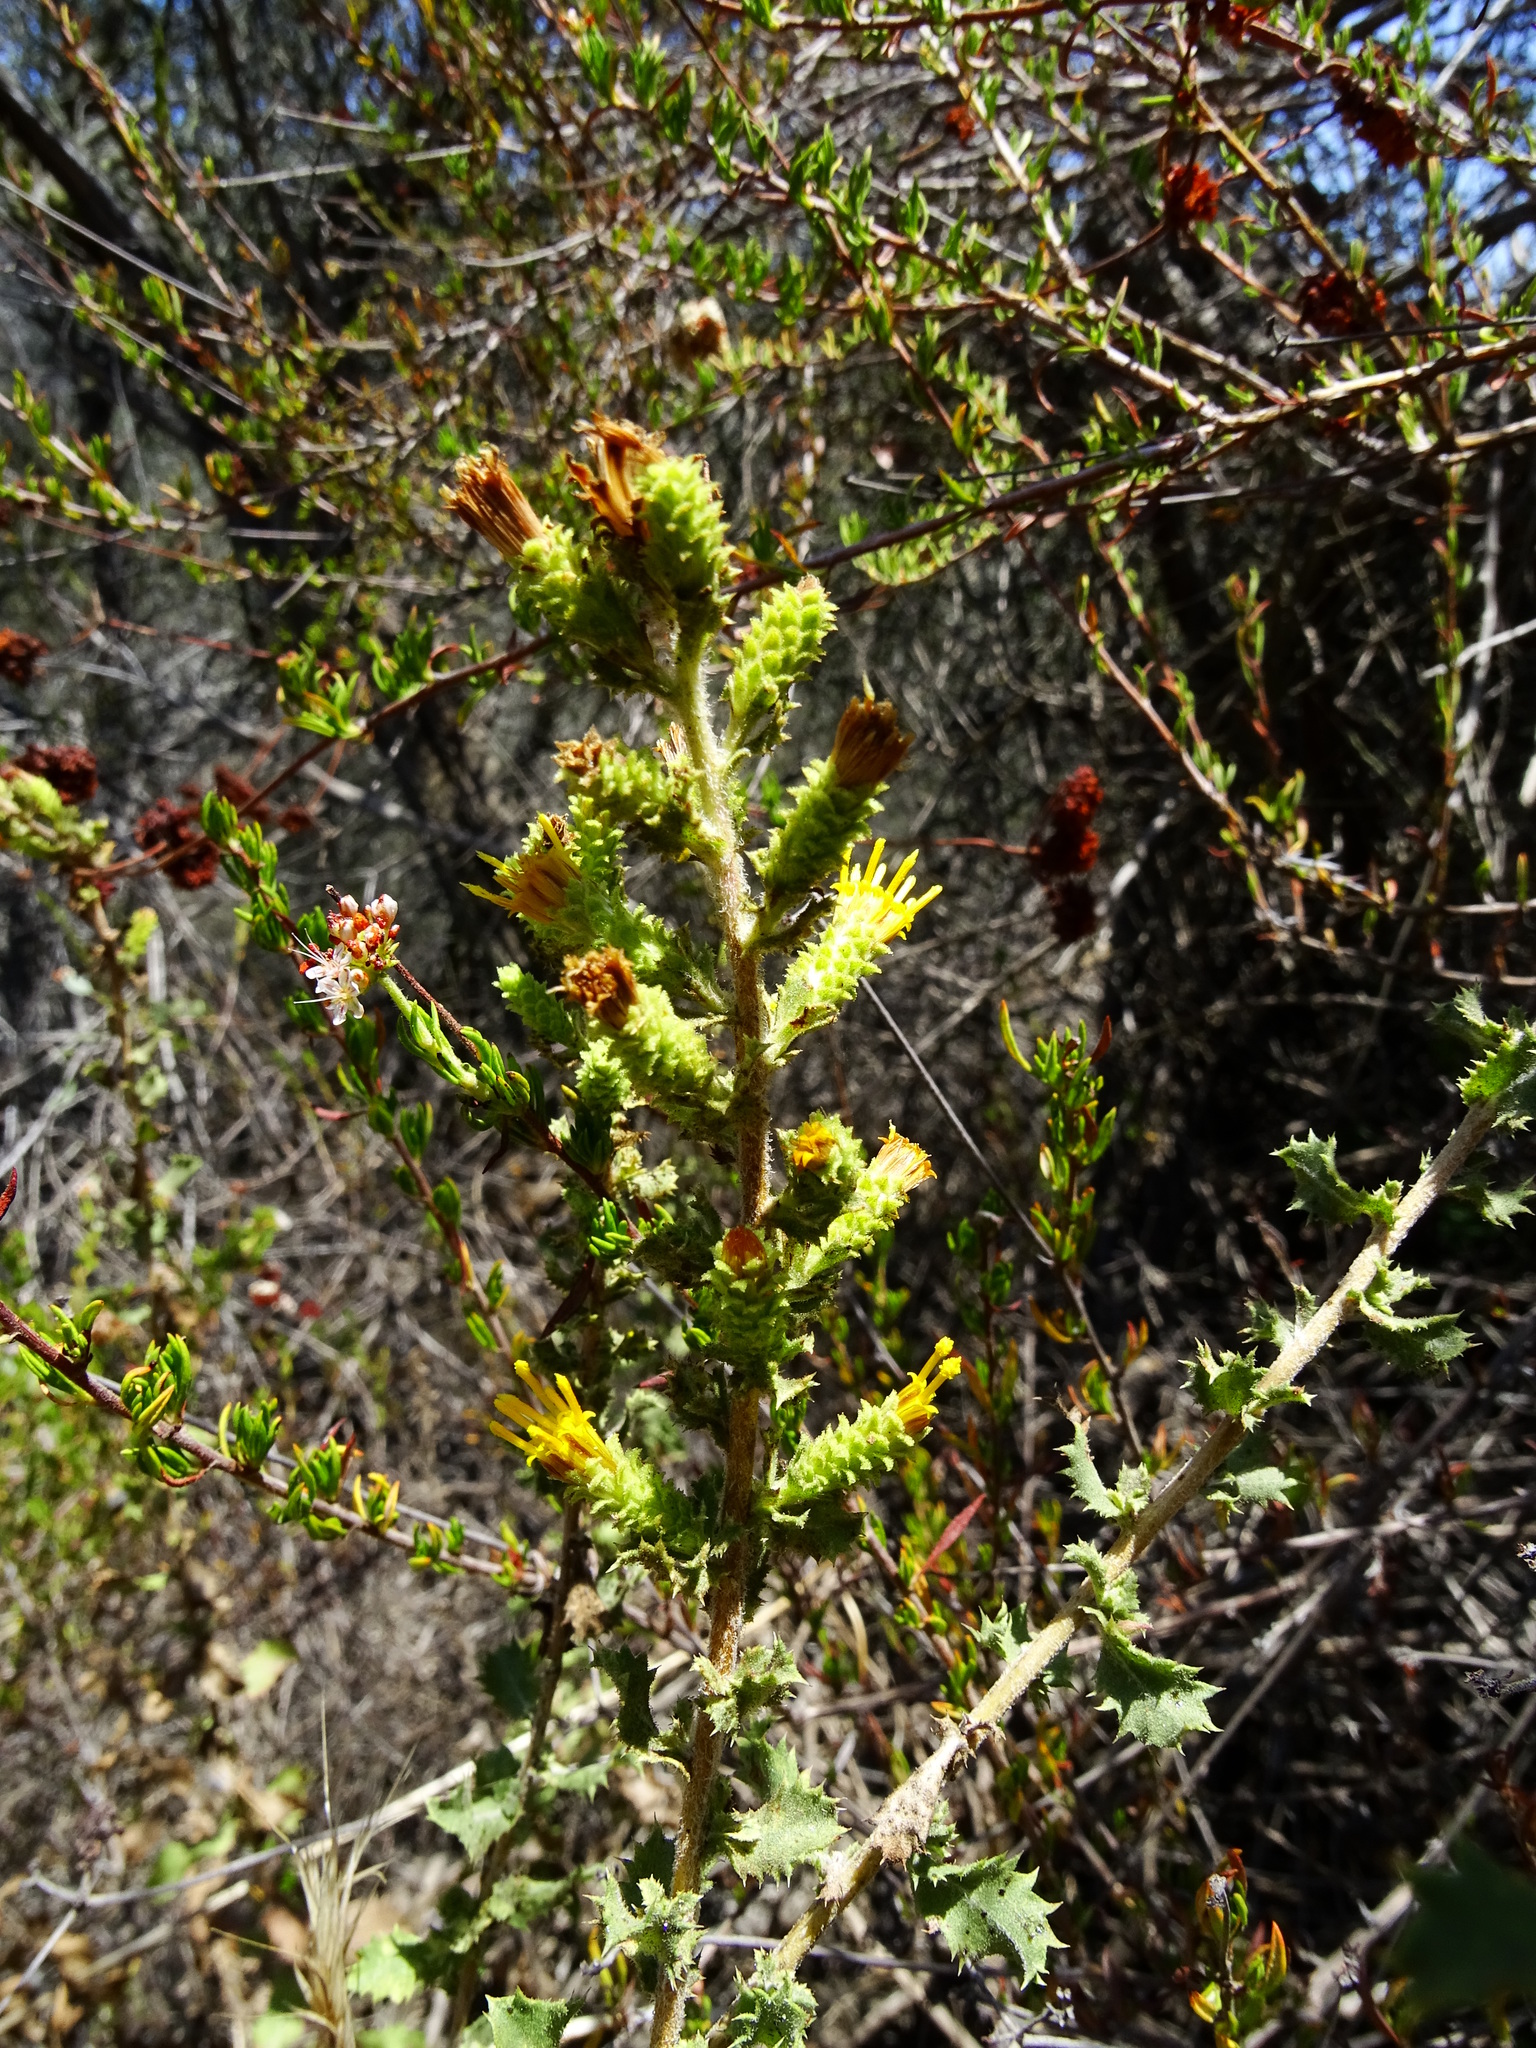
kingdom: Plantae
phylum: Tracheophyta
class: Magnoliopsida
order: Asterales
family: Asteraceae
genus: Hazardia
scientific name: Hazardia squarrosa
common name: Saw-tooth goldenbush
